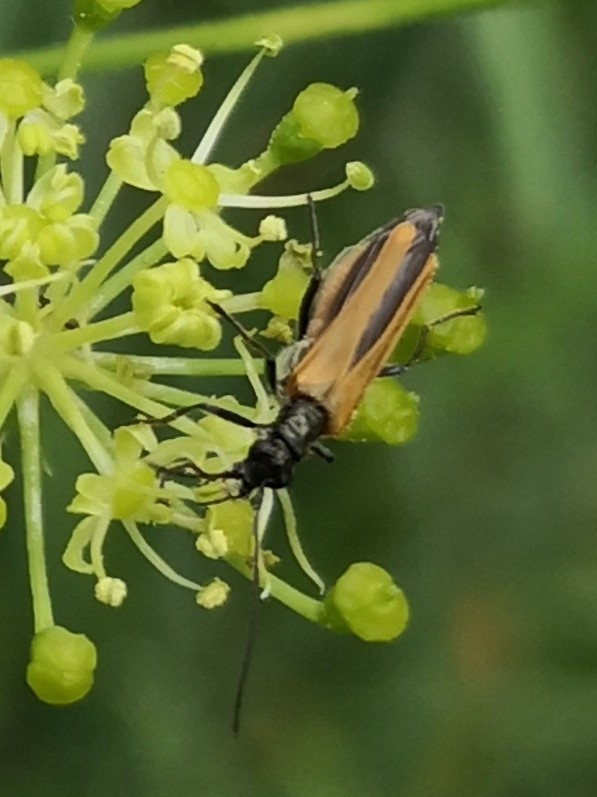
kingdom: Animalia
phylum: Arthropoda
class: Insecta
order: Coleoptera
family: Oedemeridae
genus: Oedemera
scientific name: Oedemera femorata
